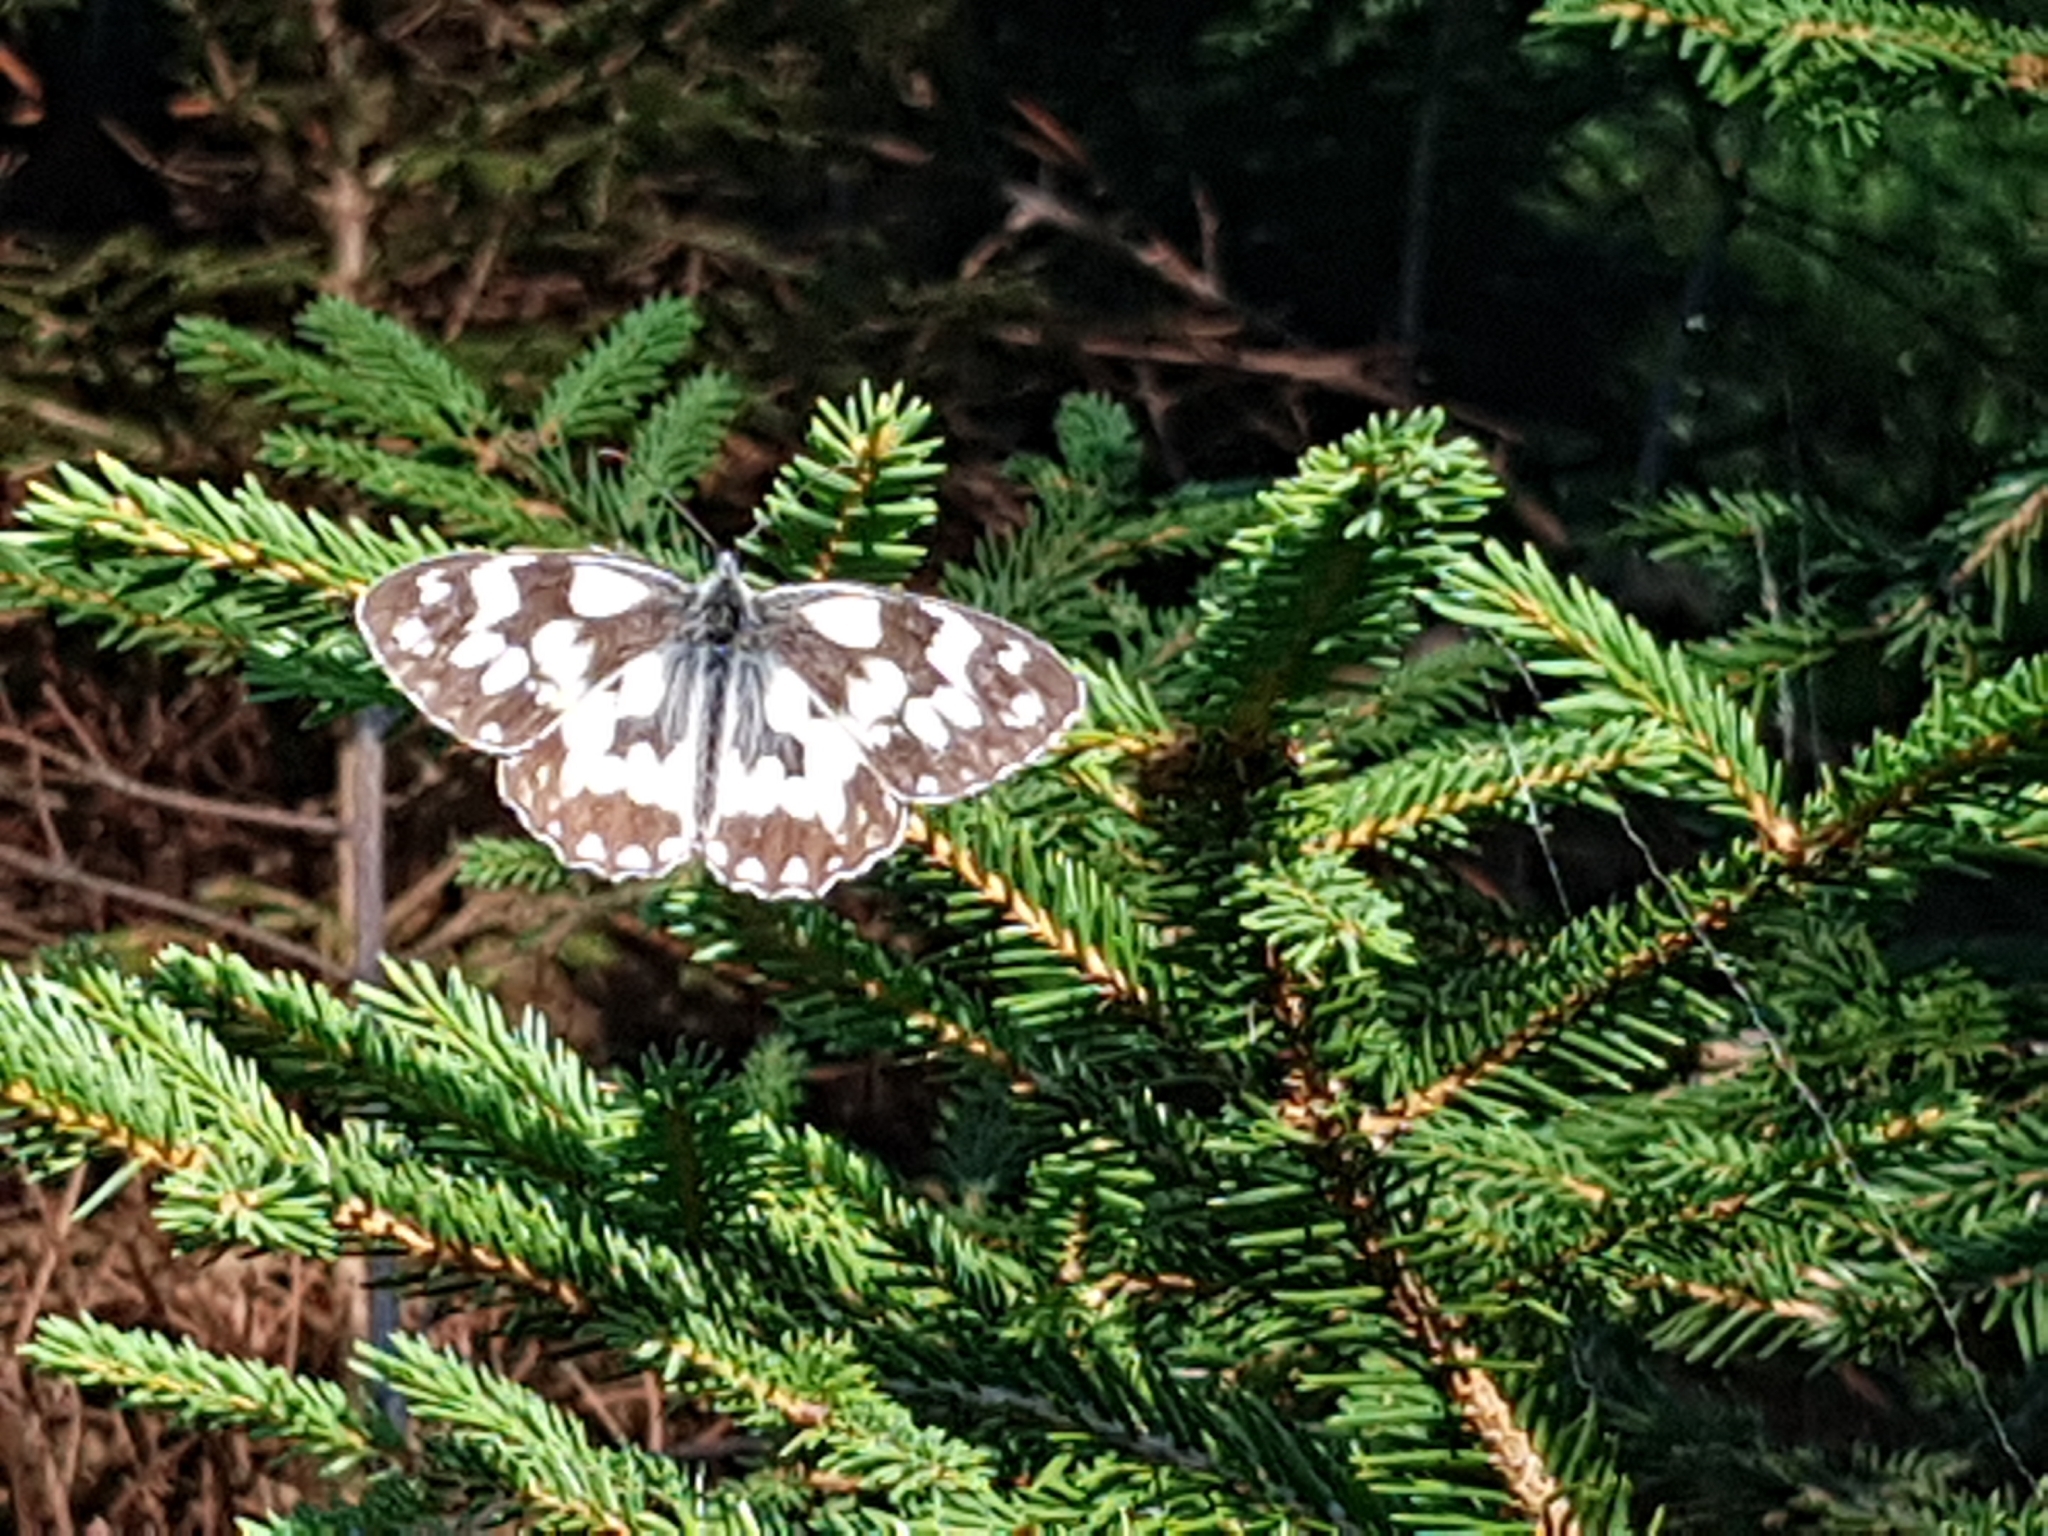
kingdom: Animalia
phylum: Arthropoda
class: Insecta
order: Lepidoptera
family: Nymphalidae
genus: Melanargia
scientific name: Melanargia galathea
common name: Marbled white
